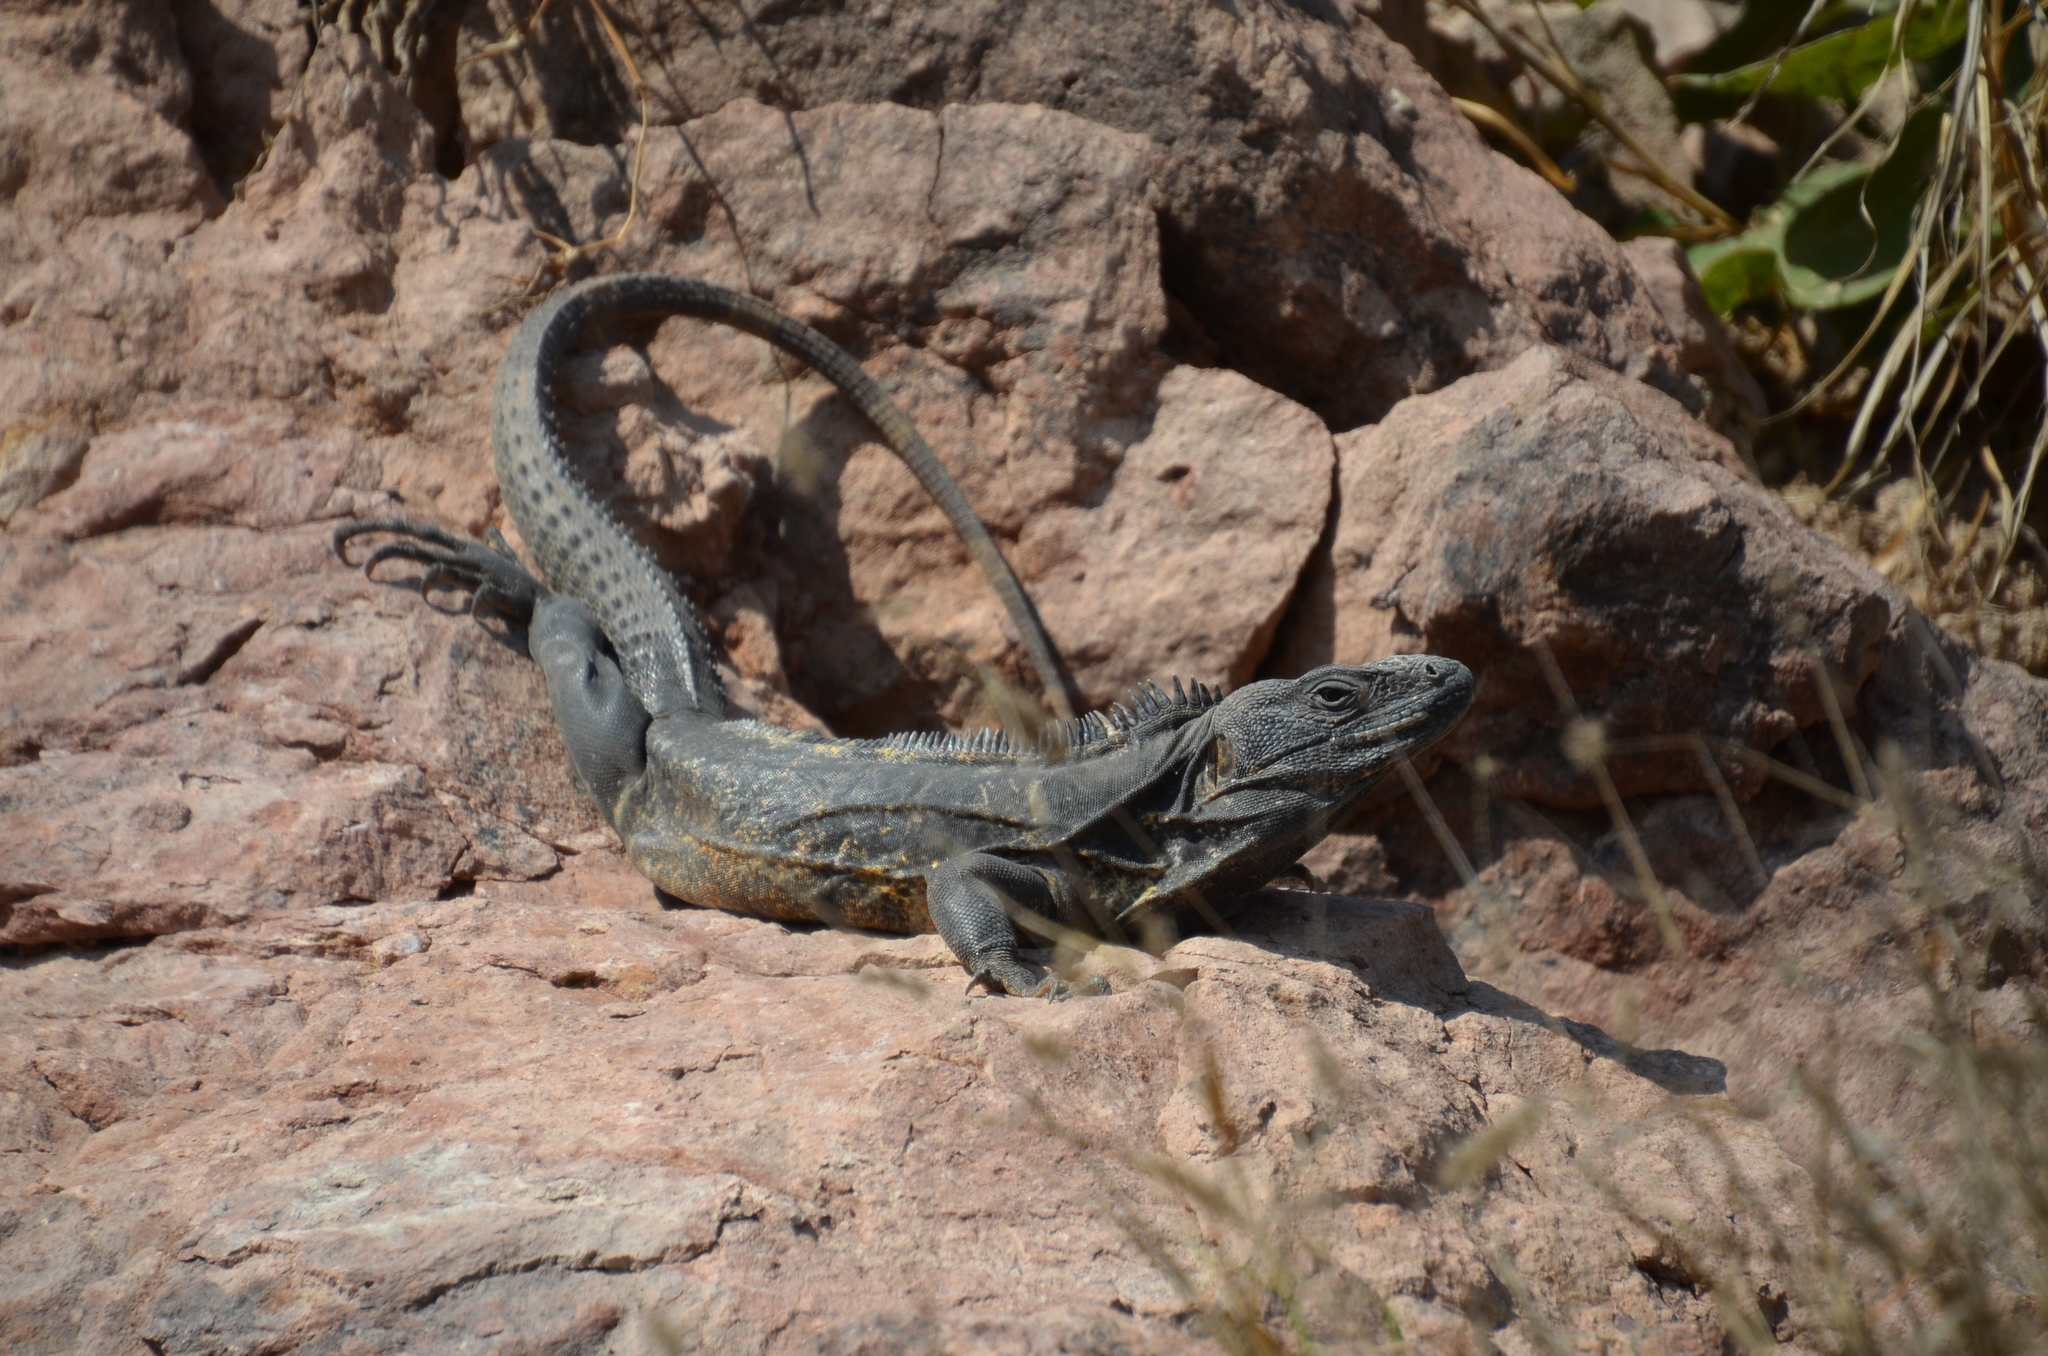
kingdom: Animalia
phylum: Chordata
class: Squamata
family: Iguanidae
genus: Ctenosaura
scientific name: Ctenosaura pectinata
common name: Guerreran spiny-tailed iguana
